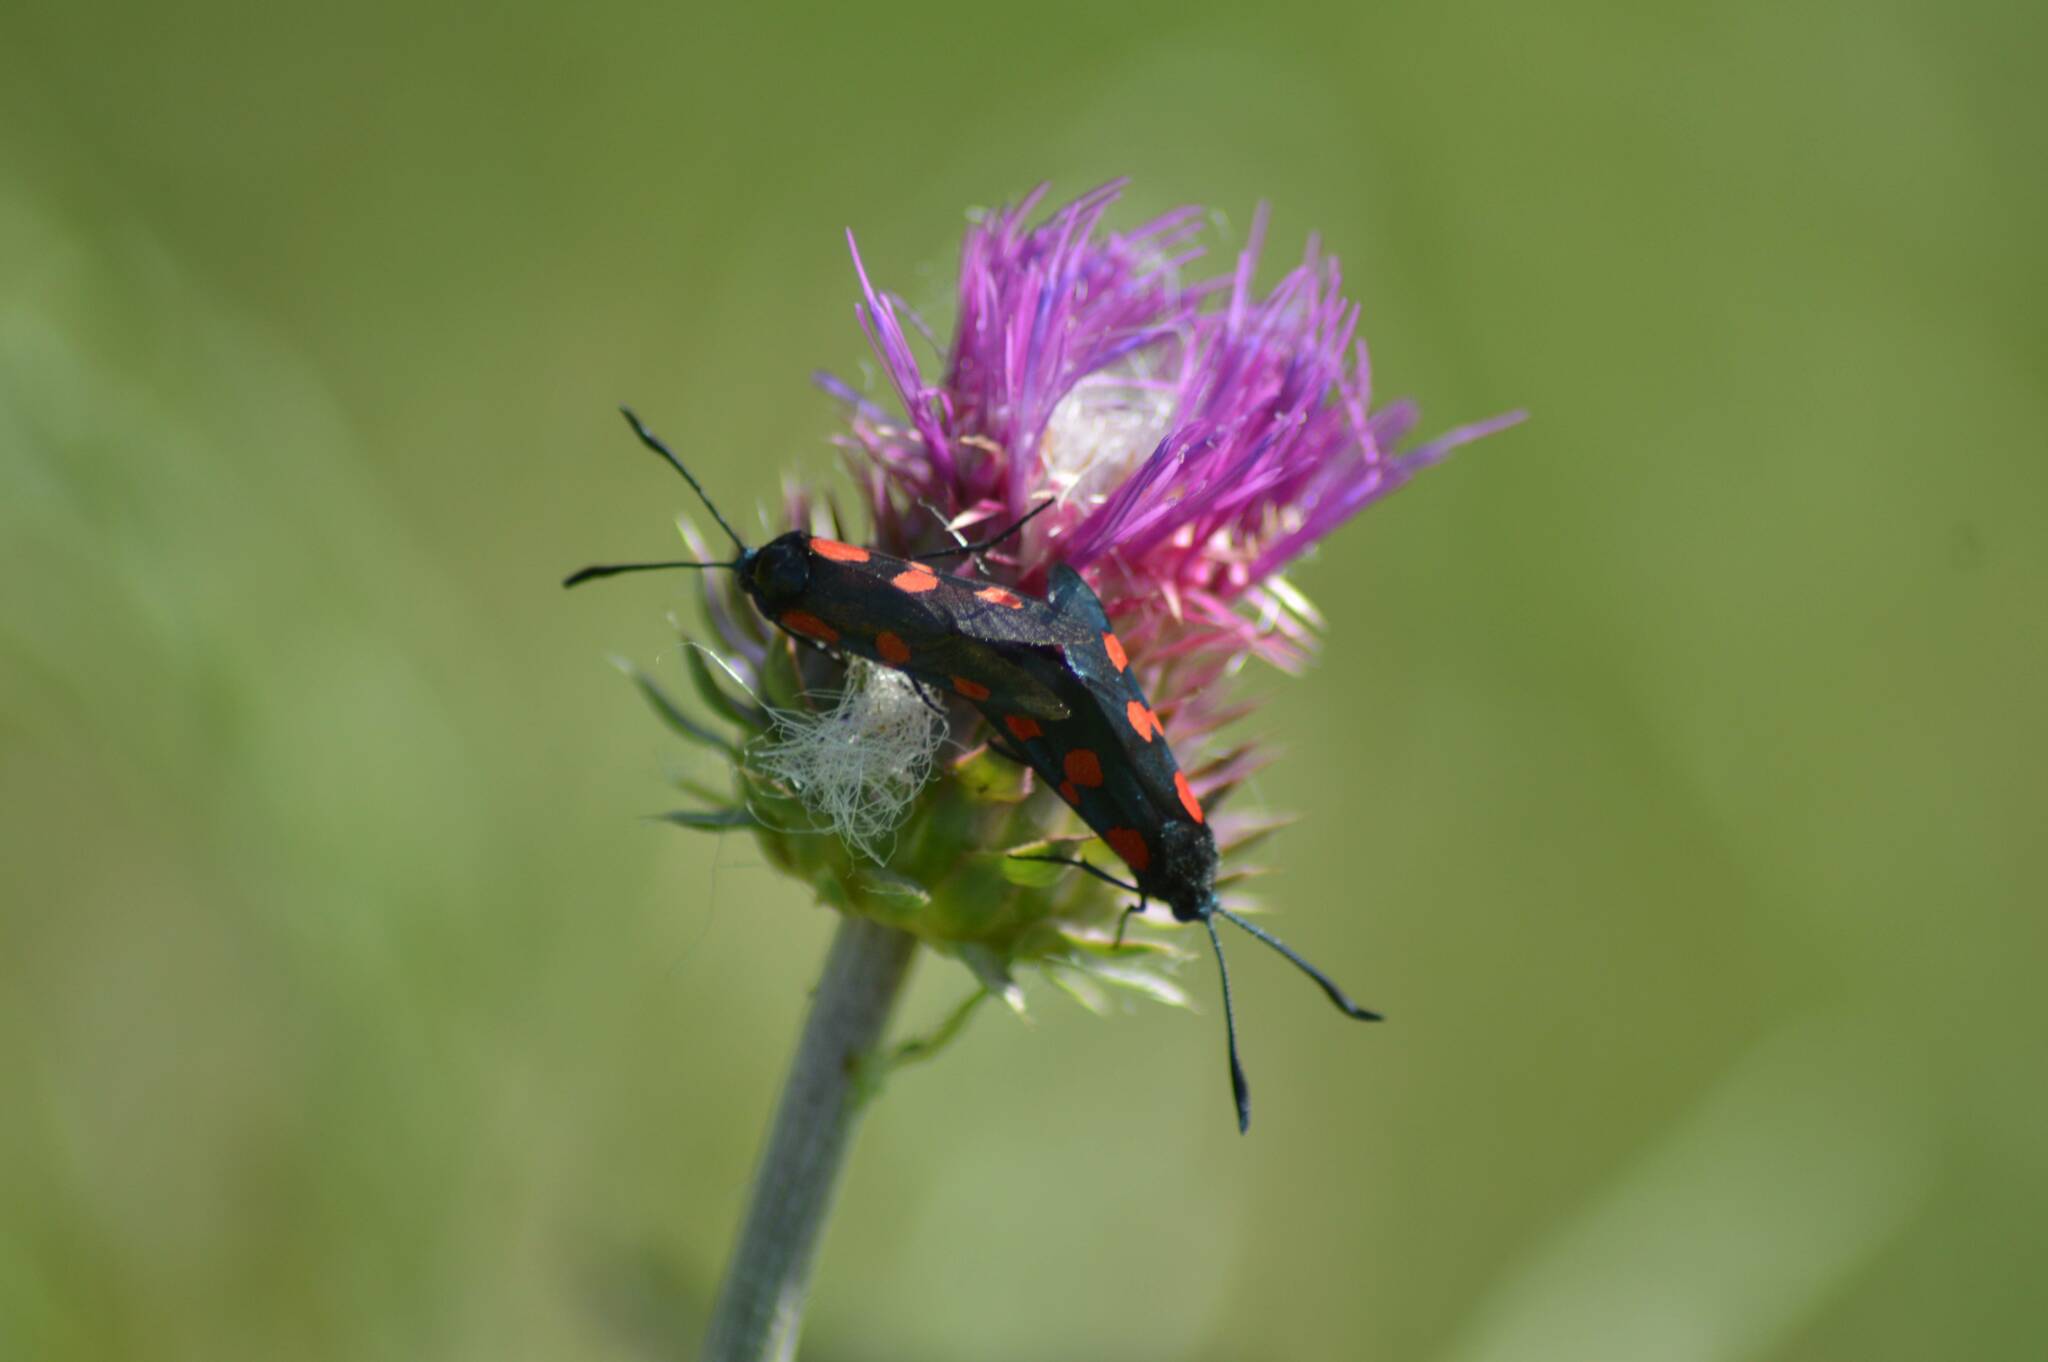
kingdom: Animalia
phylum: Arthropoda
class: Insecta
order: Lepidoptera
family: Zygaenidae
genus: Zygaena
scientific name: Zygaena trifolii
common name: Five-spot burnet
